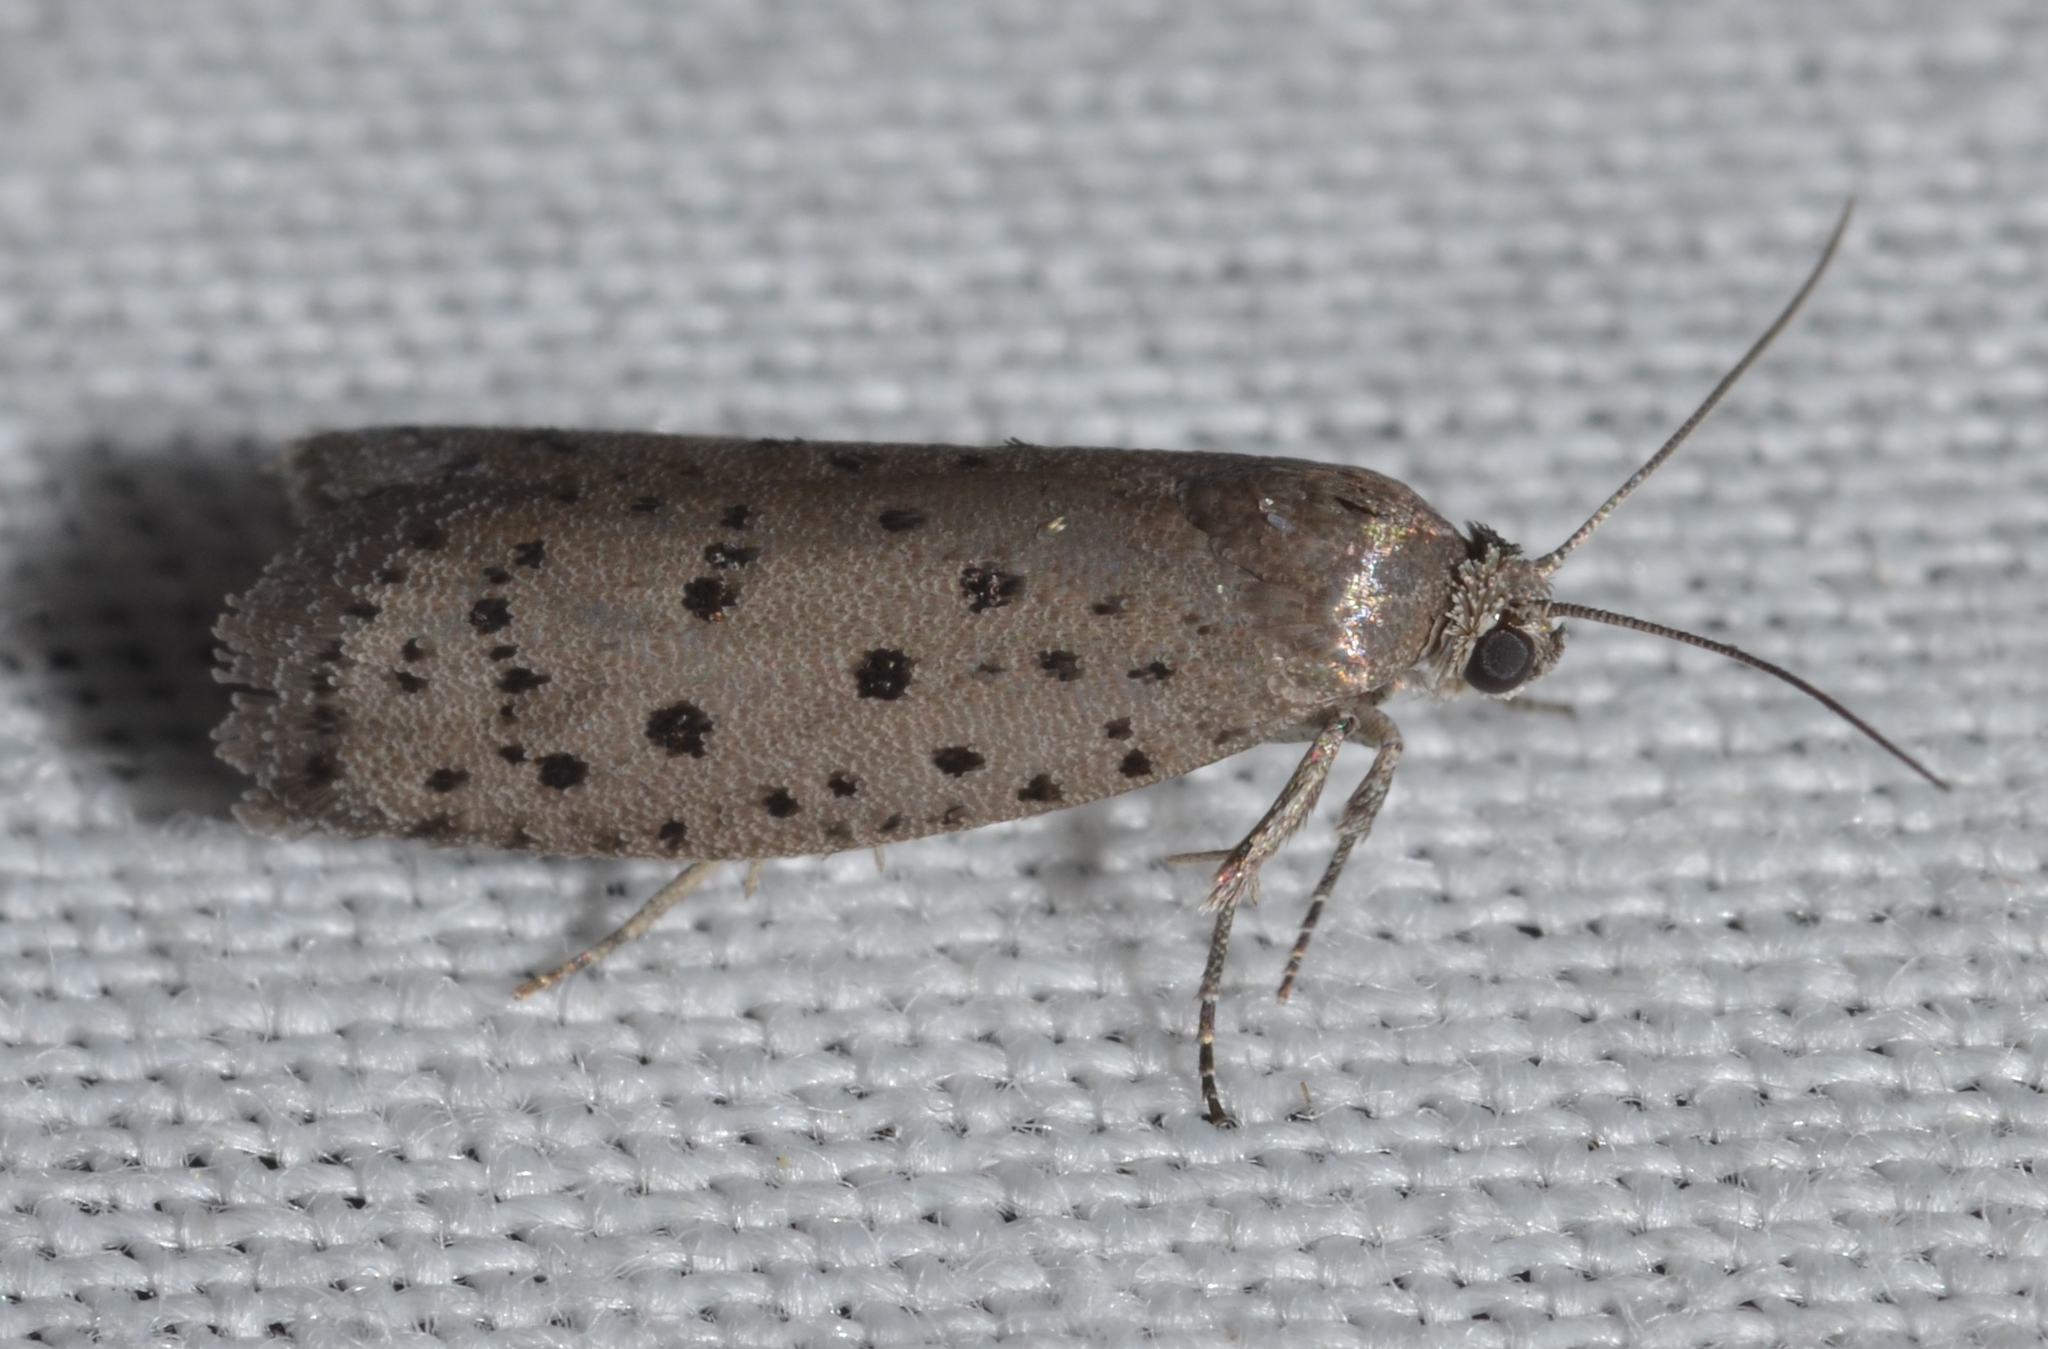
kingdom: Animalia
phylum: Arthropoda
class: Insecta
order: Lepidoptera
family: Galacticidae
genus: Homadaula
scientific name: Homadaula anisocentra
